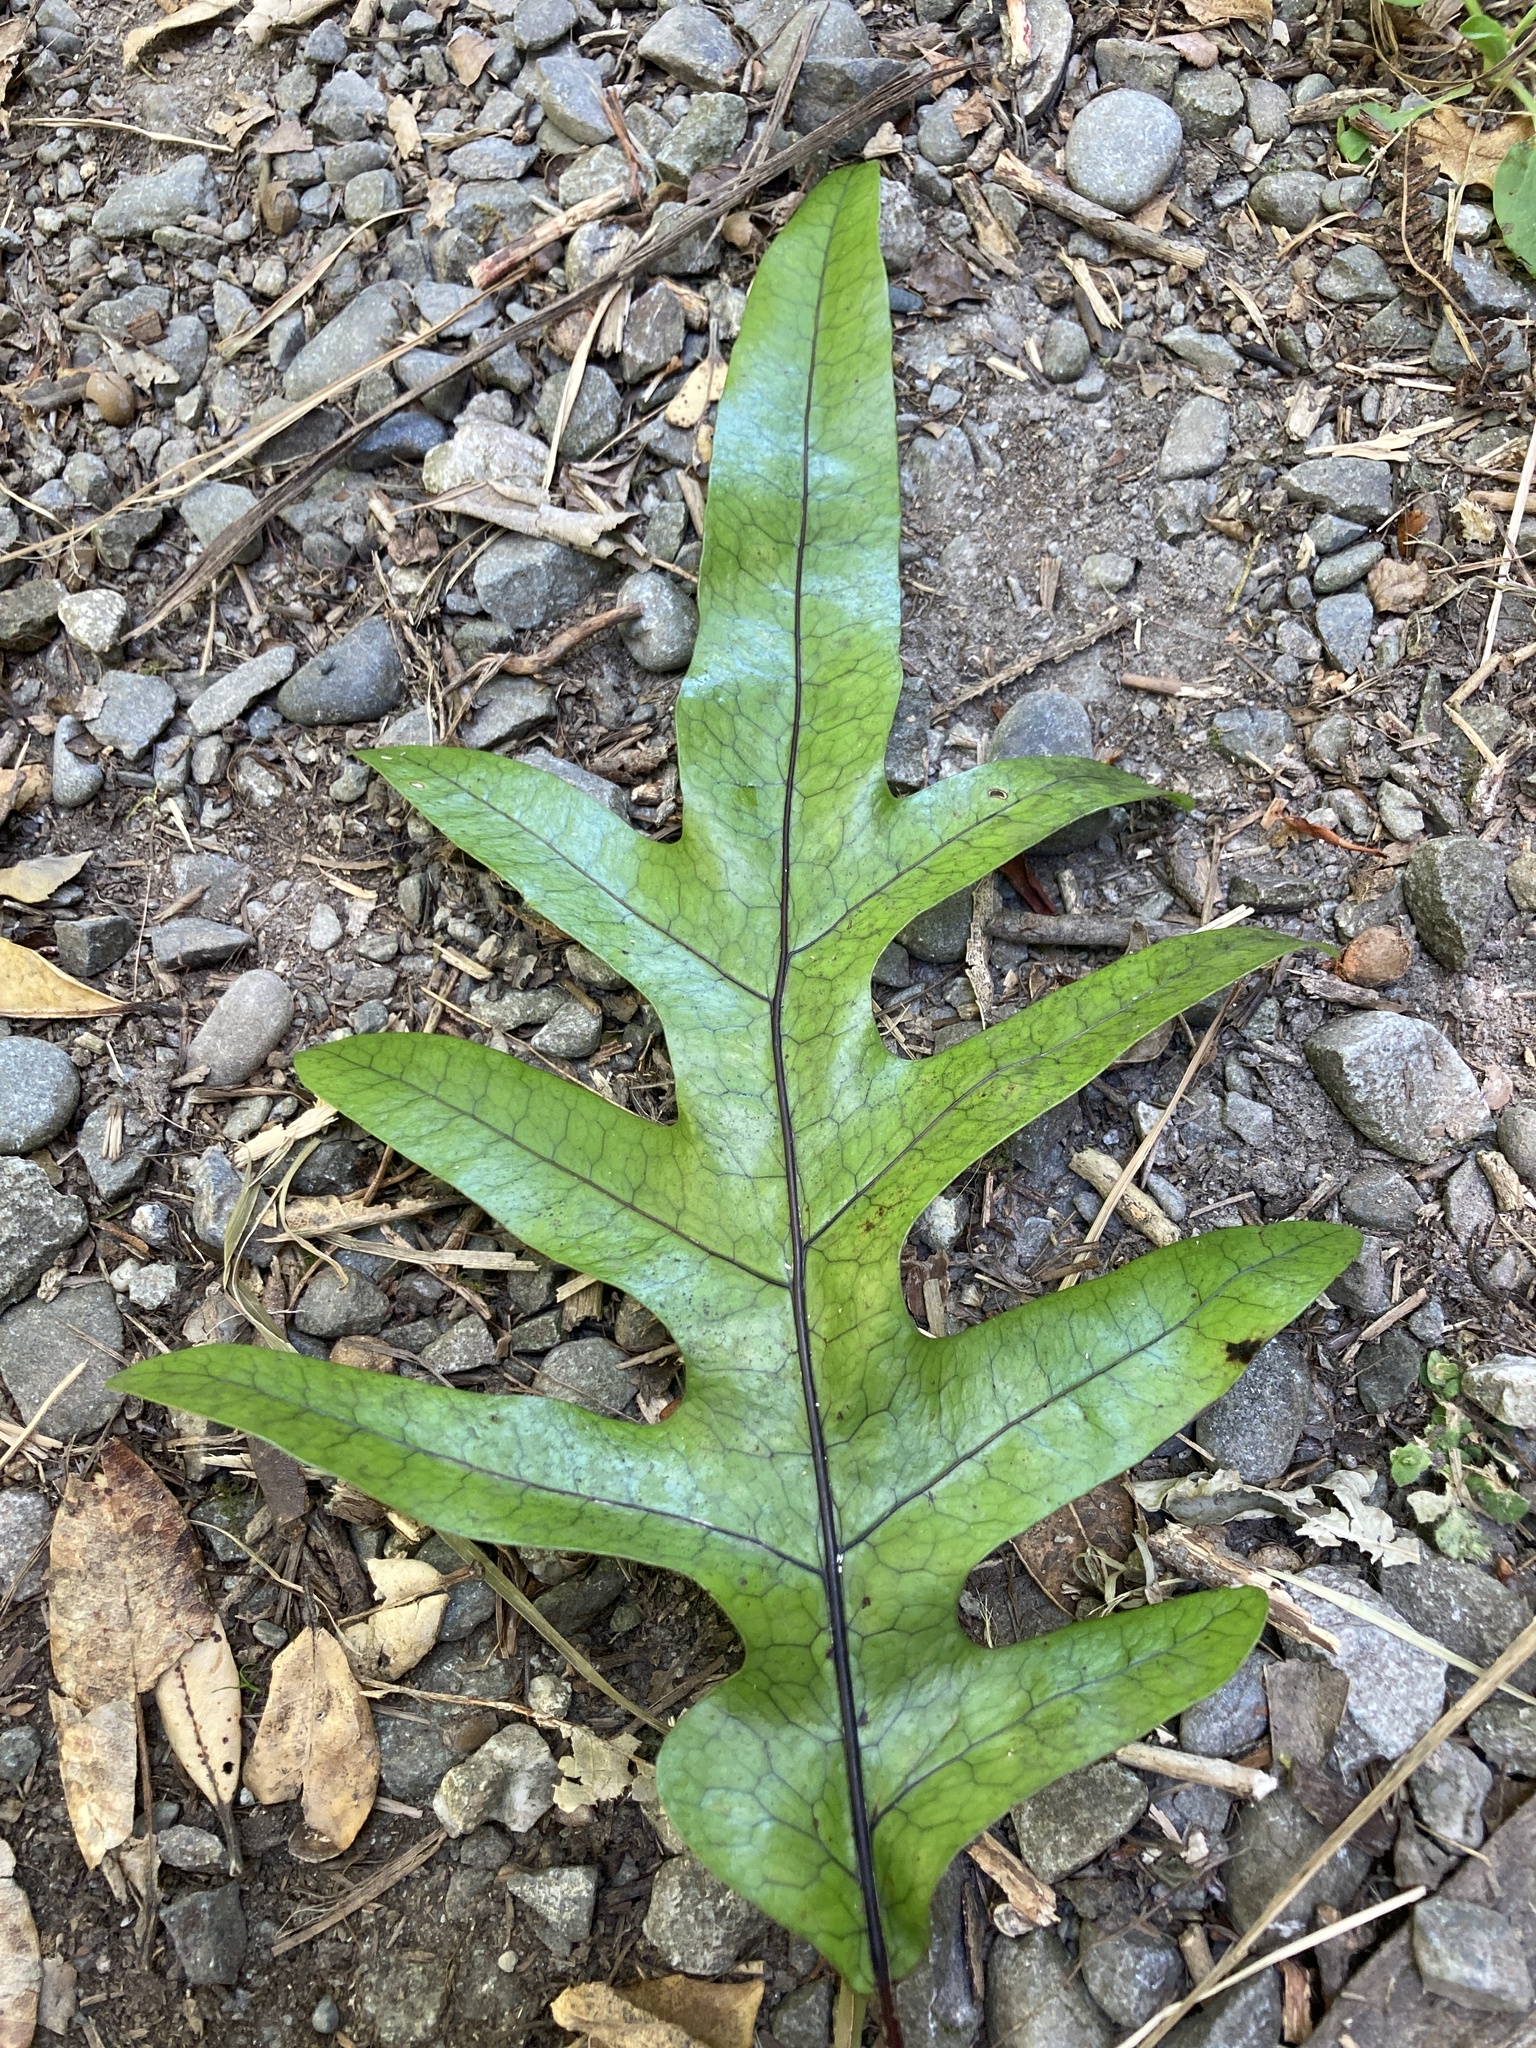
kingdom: Plantae
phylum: Tracheophyta
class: Polypodiopsida
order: Polypodiales
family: Polypodiaceae
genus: Lecanopteris
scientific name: Lecanopteris pustulata
